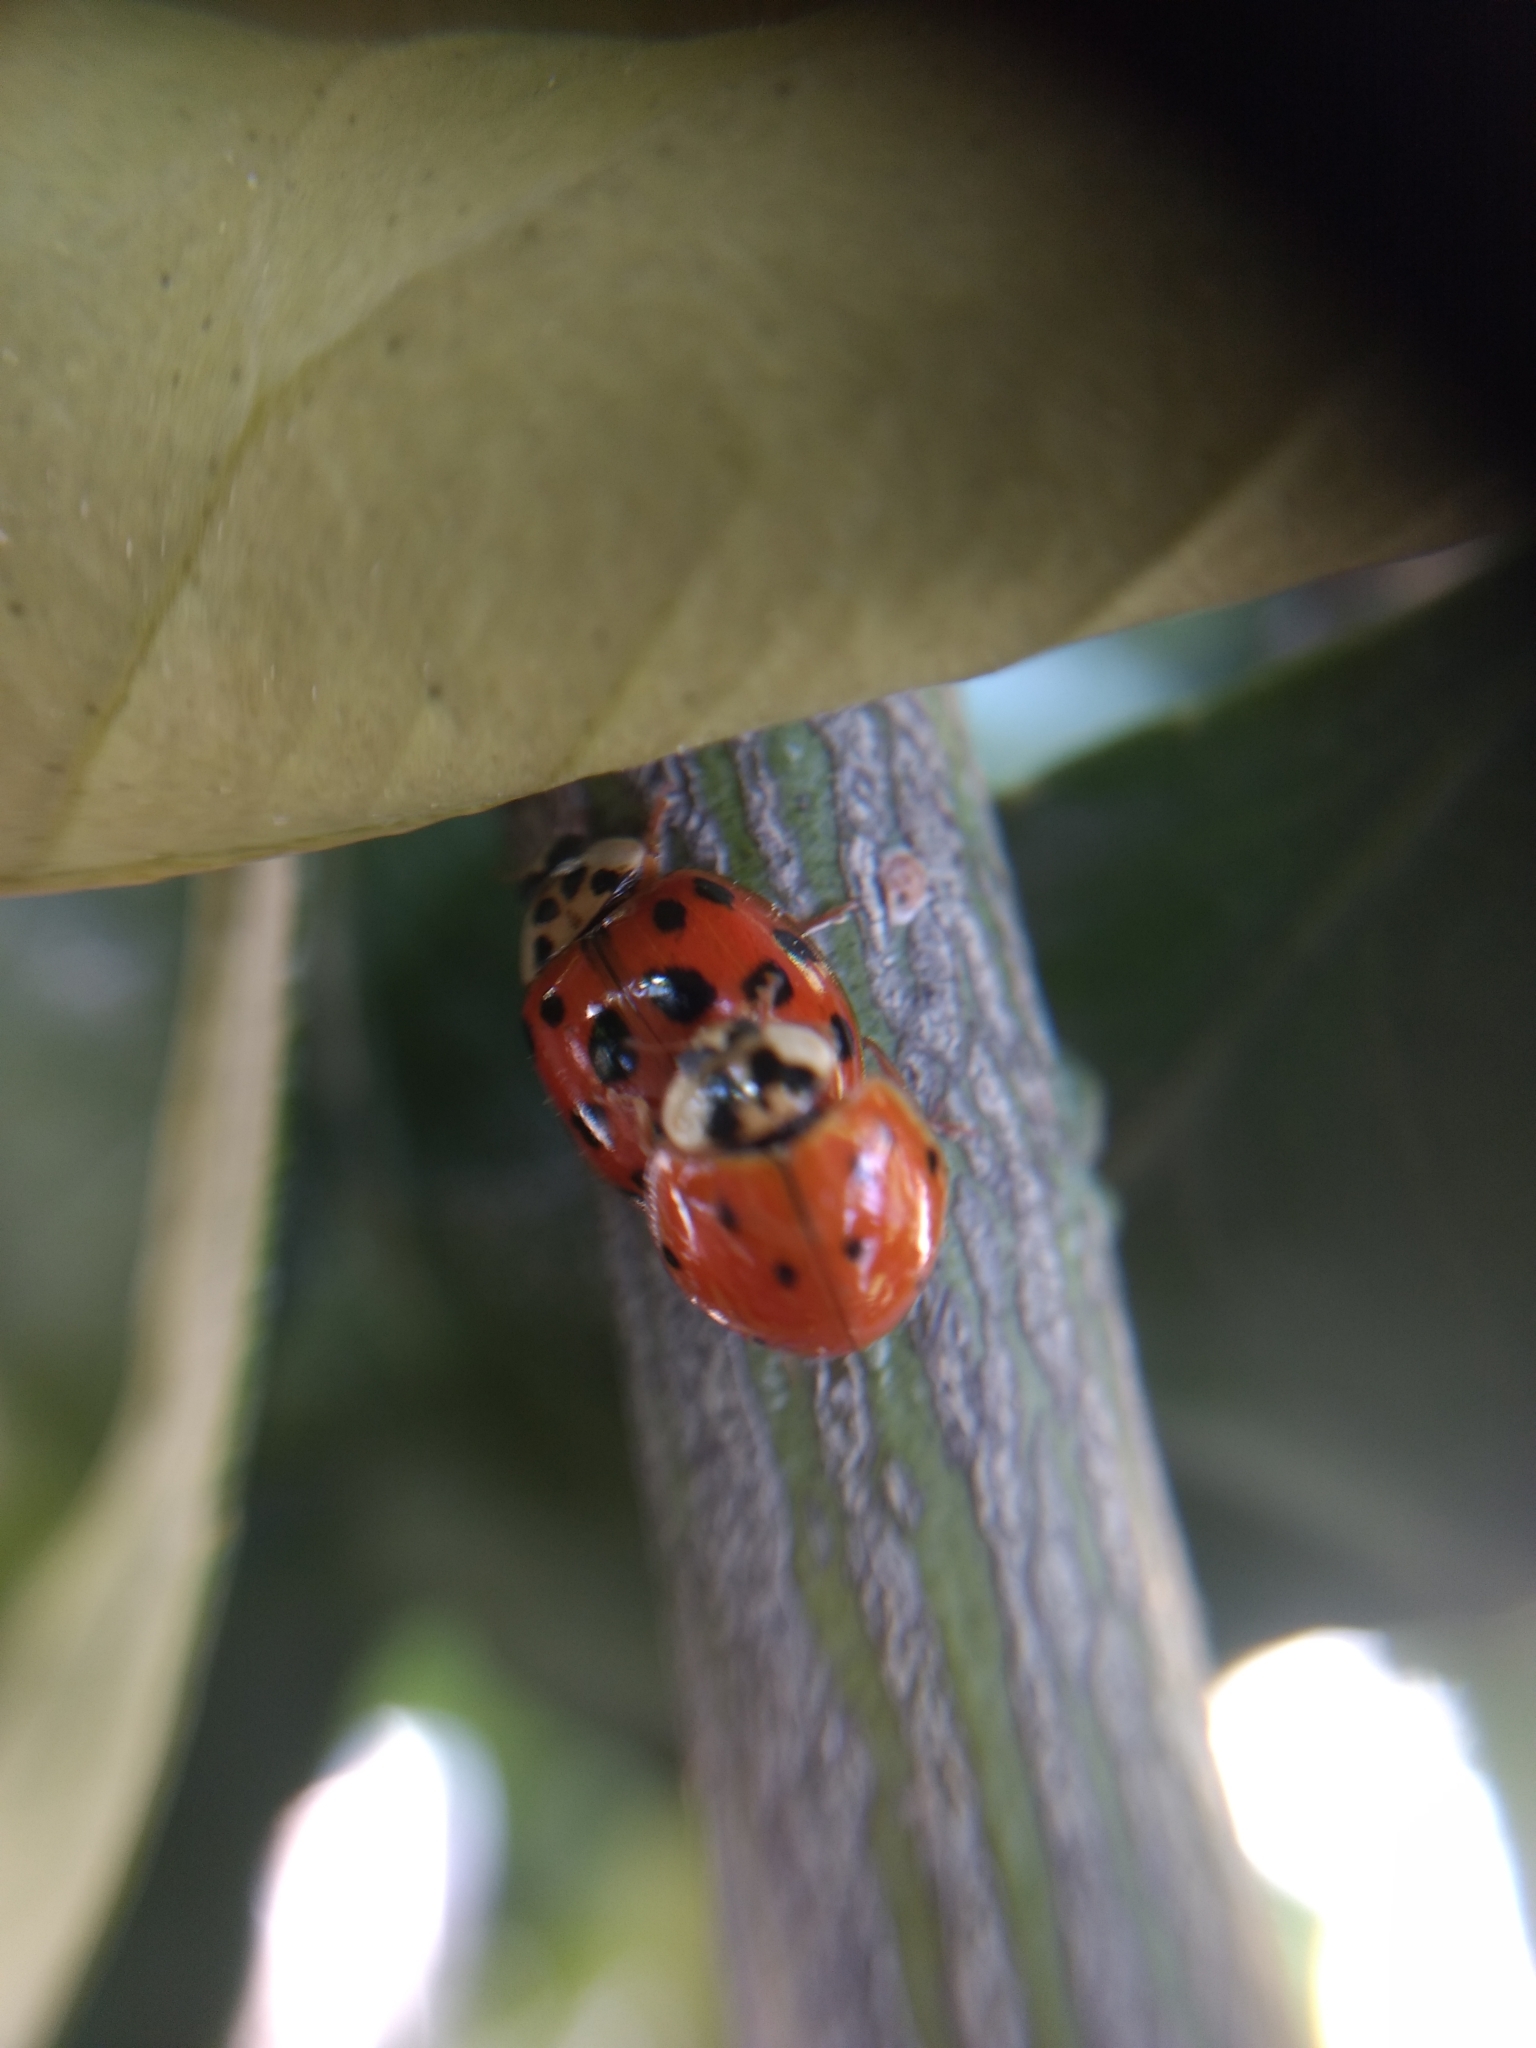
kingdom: Animalia
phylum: Arthropoda
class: Insecta
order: Coleoptera
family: Coccinellidae
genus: Harmonia
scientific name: Harmonia axyridis
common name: Harlequin ladybird
